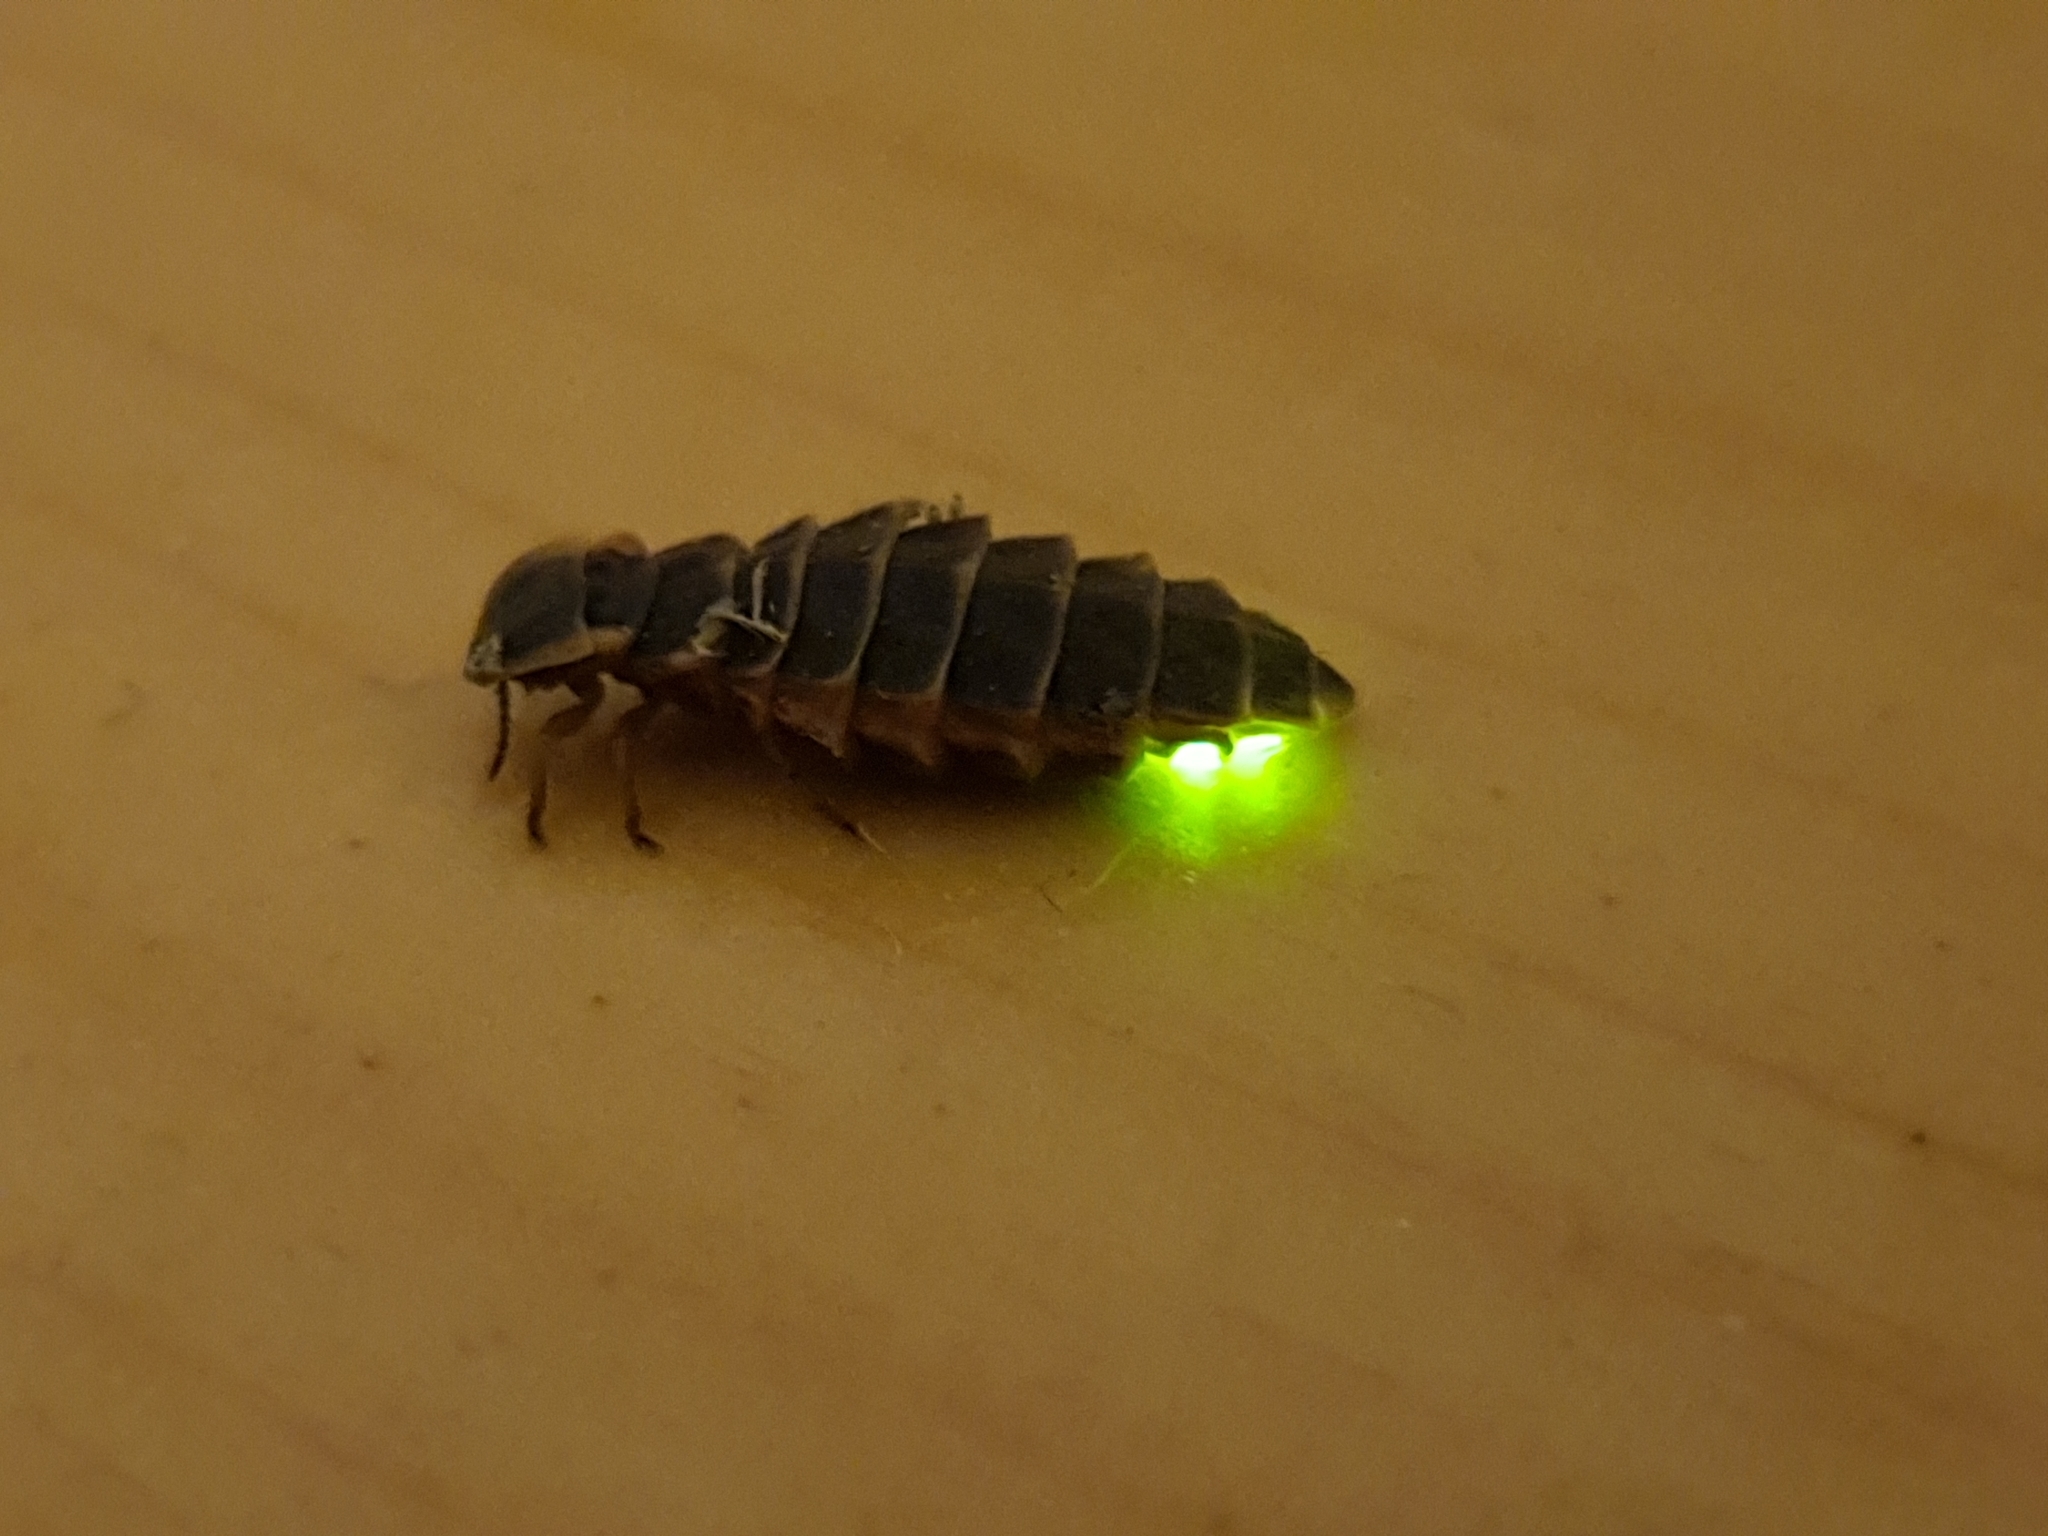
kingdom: Animalia
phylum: Arthropoda
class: Insecta
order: Coleoptera
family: Lampyridae
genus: Lampyris
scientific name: Lampyris noctiluca
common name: Glow-worm
